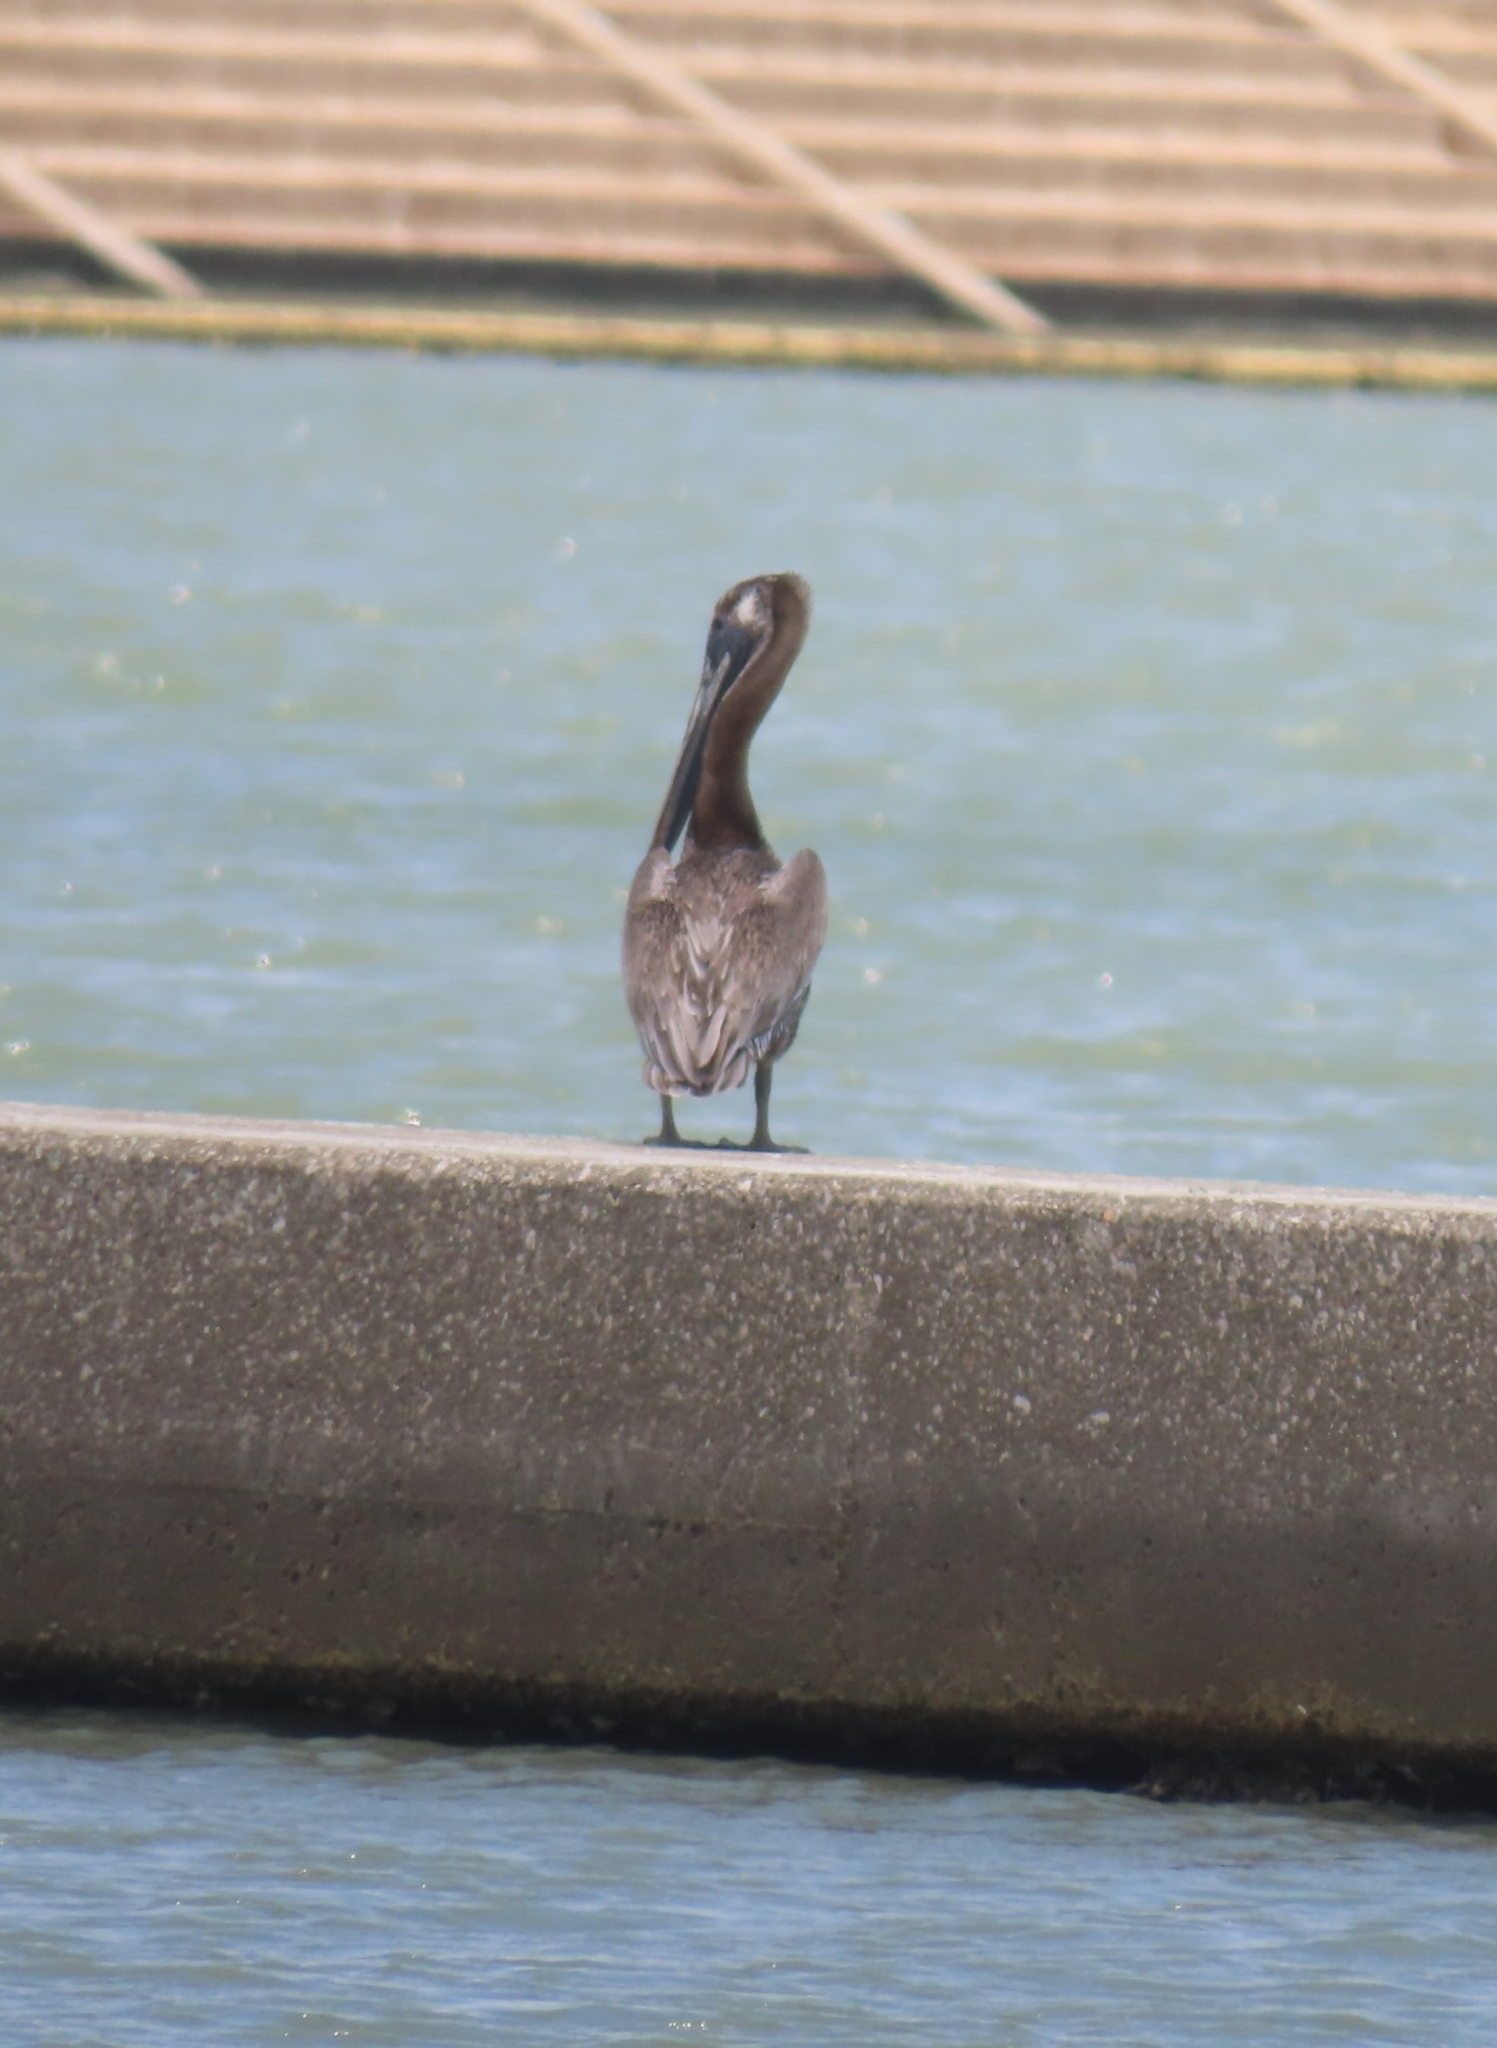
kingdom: Animalia
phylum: Chordata
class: Aves
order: Pelecaniformes
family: Pelecanidae
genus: Pelecanus
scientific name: Pelecanus occidentalis
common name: Brown pelican
